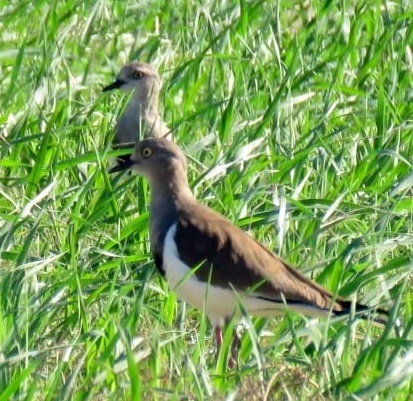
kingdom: Animalia
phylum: Chordata
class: Aves
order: Charadriiformes
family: Charadriidae
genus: Vanellus
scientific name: Vanellus melanopterus
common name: Black-winged lapwing
